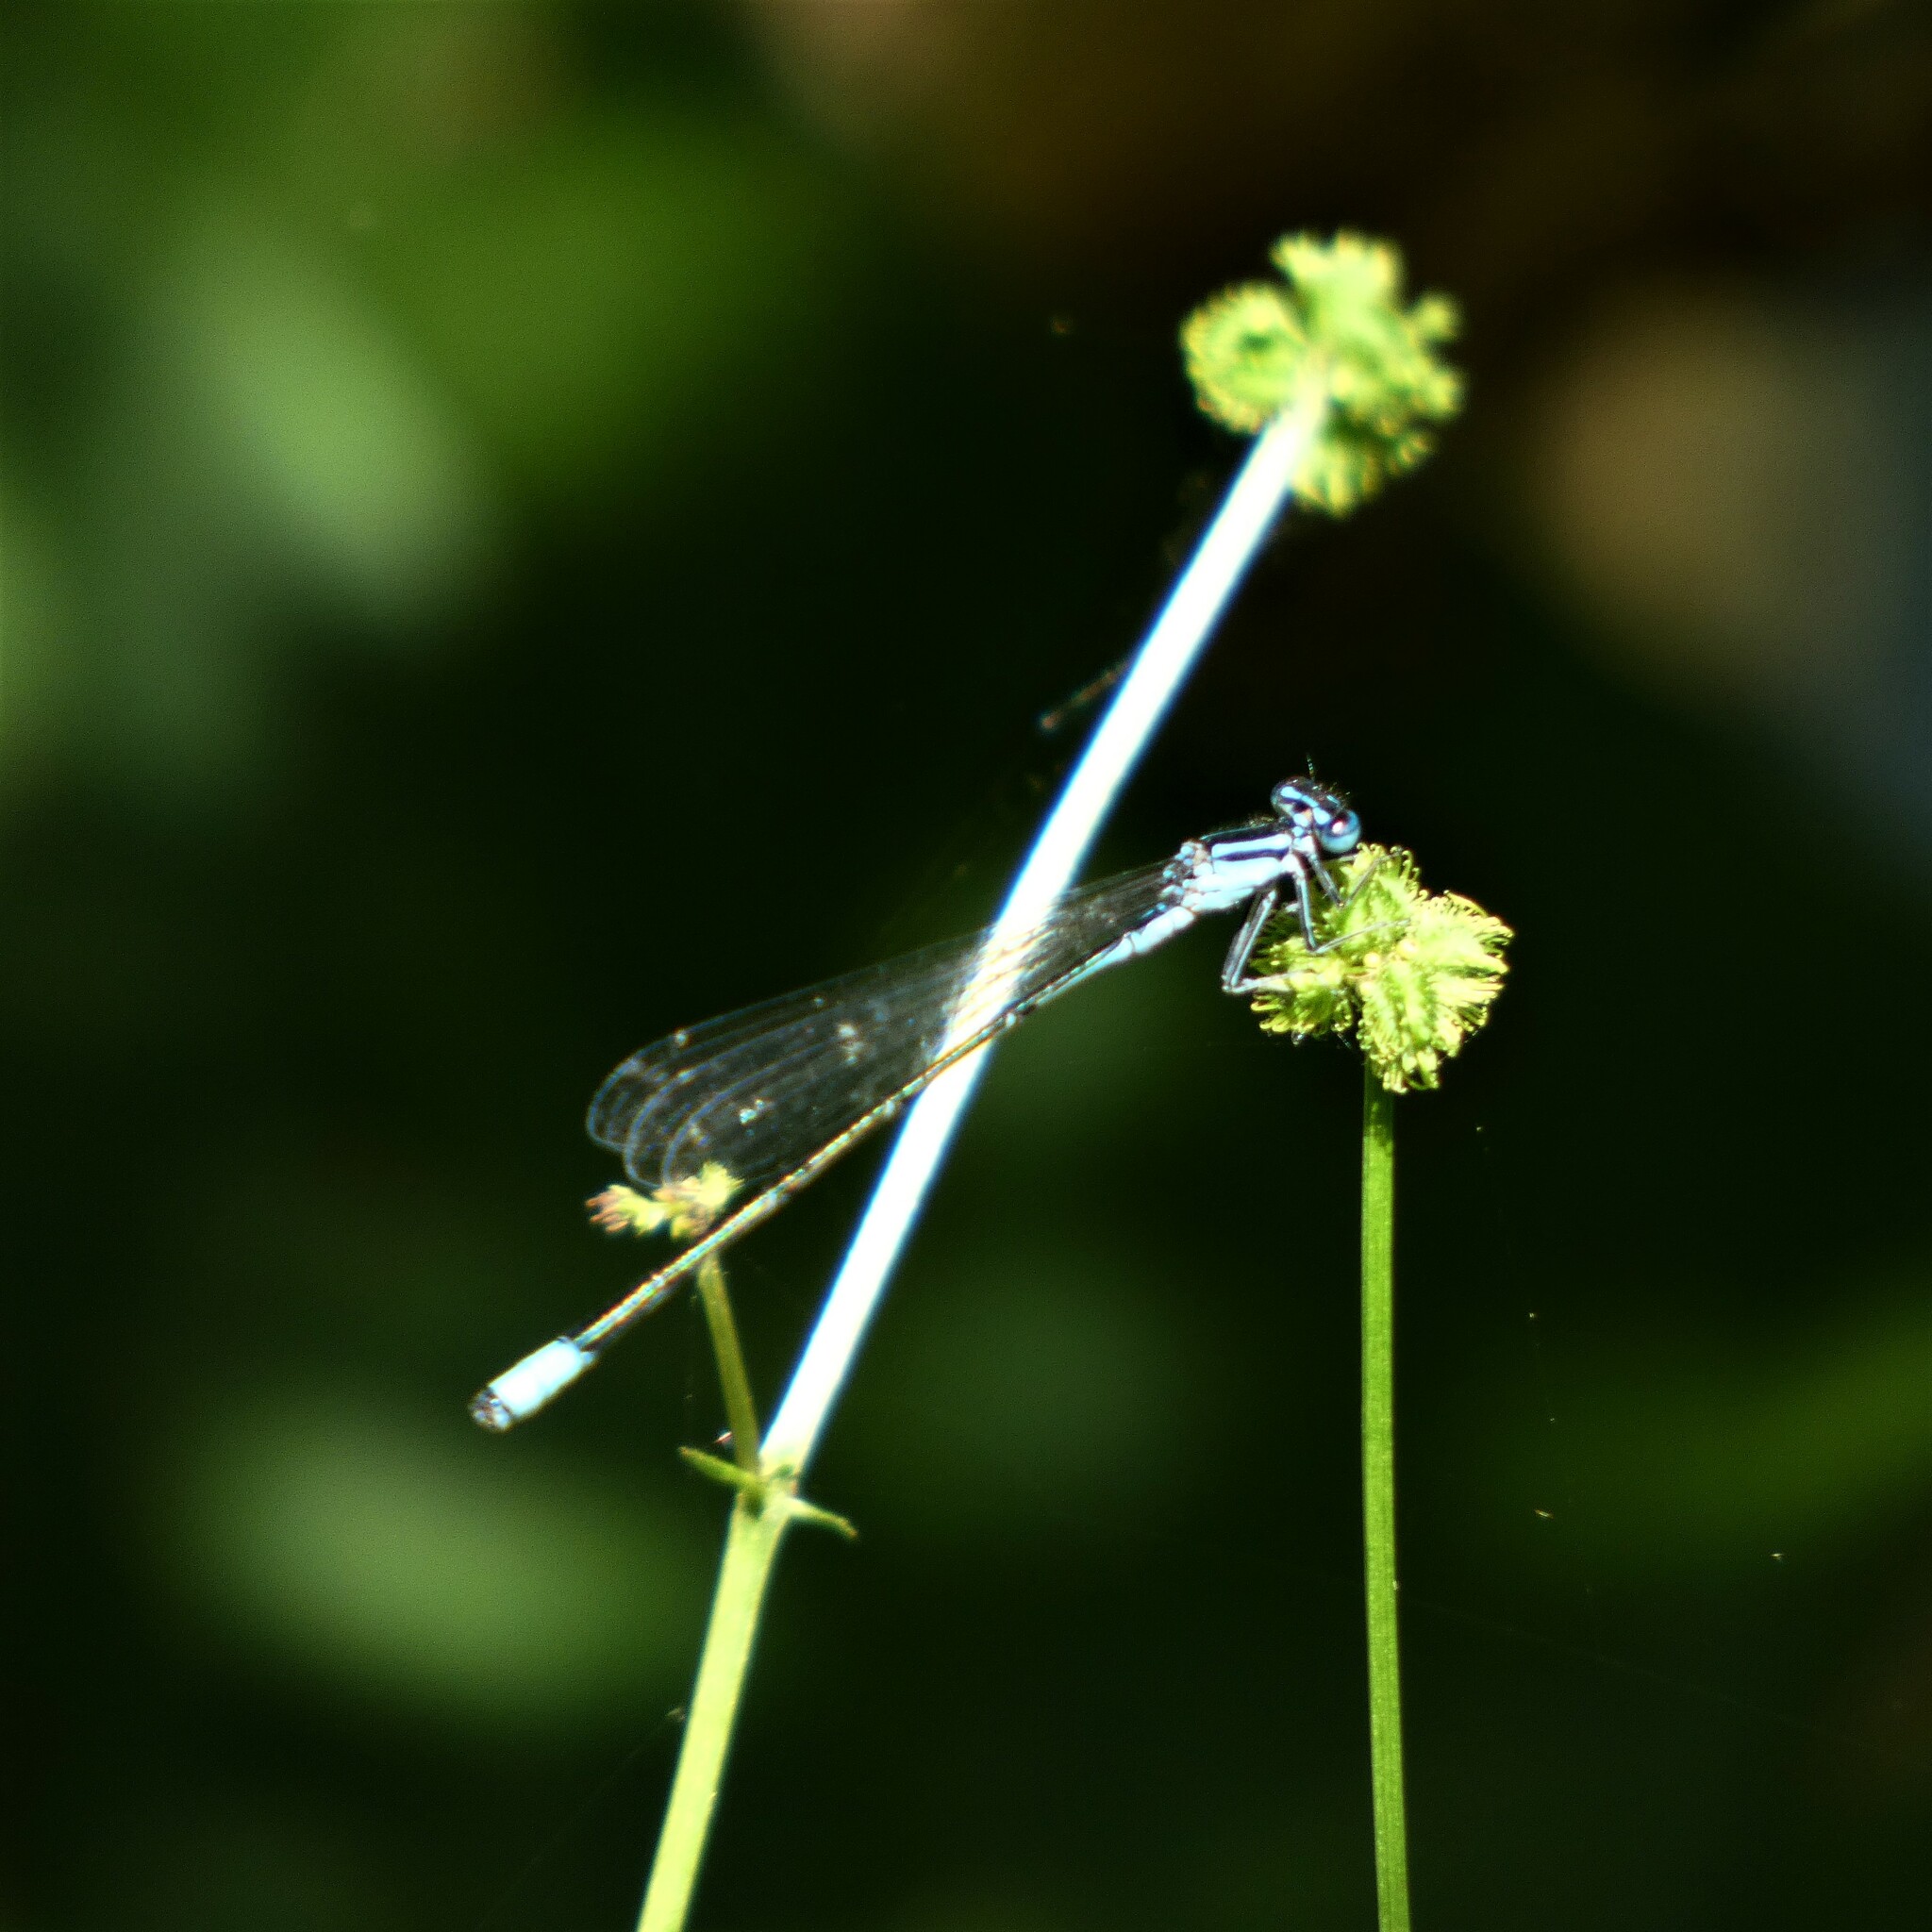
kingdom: Animalia
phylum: Arthropoda
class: Insecta
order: Odonata
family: Coenagrionidae
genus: Enallagma
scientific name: Enallagma divagans
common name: Turquoise bluet
